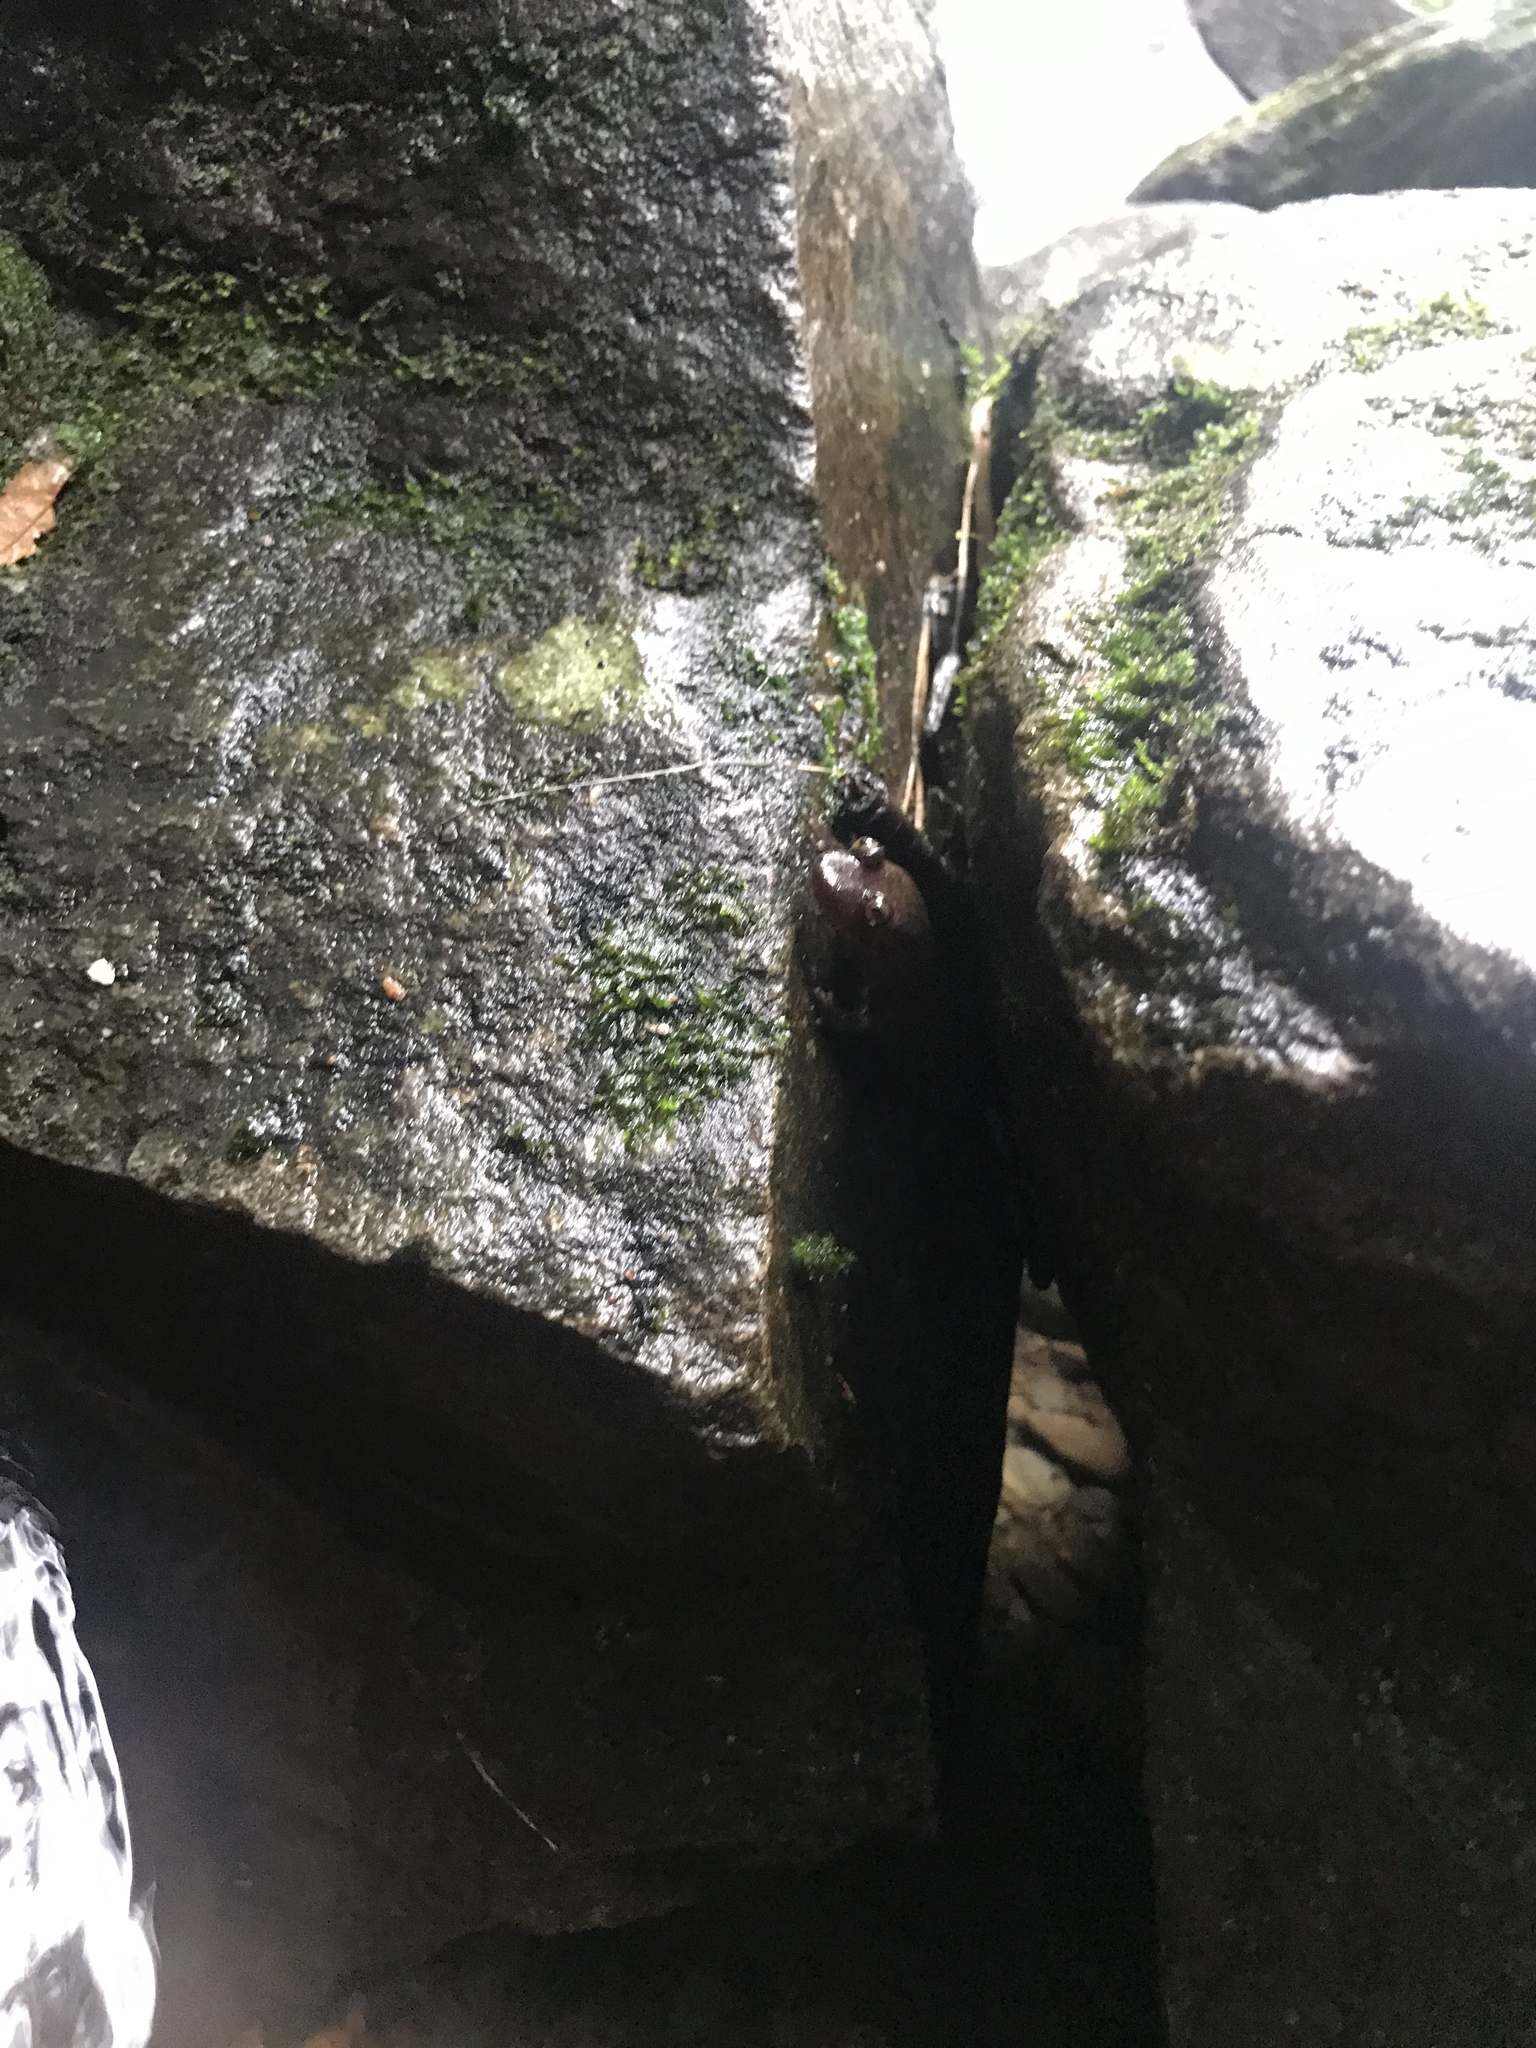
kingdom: Animalia
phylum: Chordata
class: Amphibia
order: Caudata
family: Plethodontidae
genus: Desmognathus
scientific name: Desmognathus
